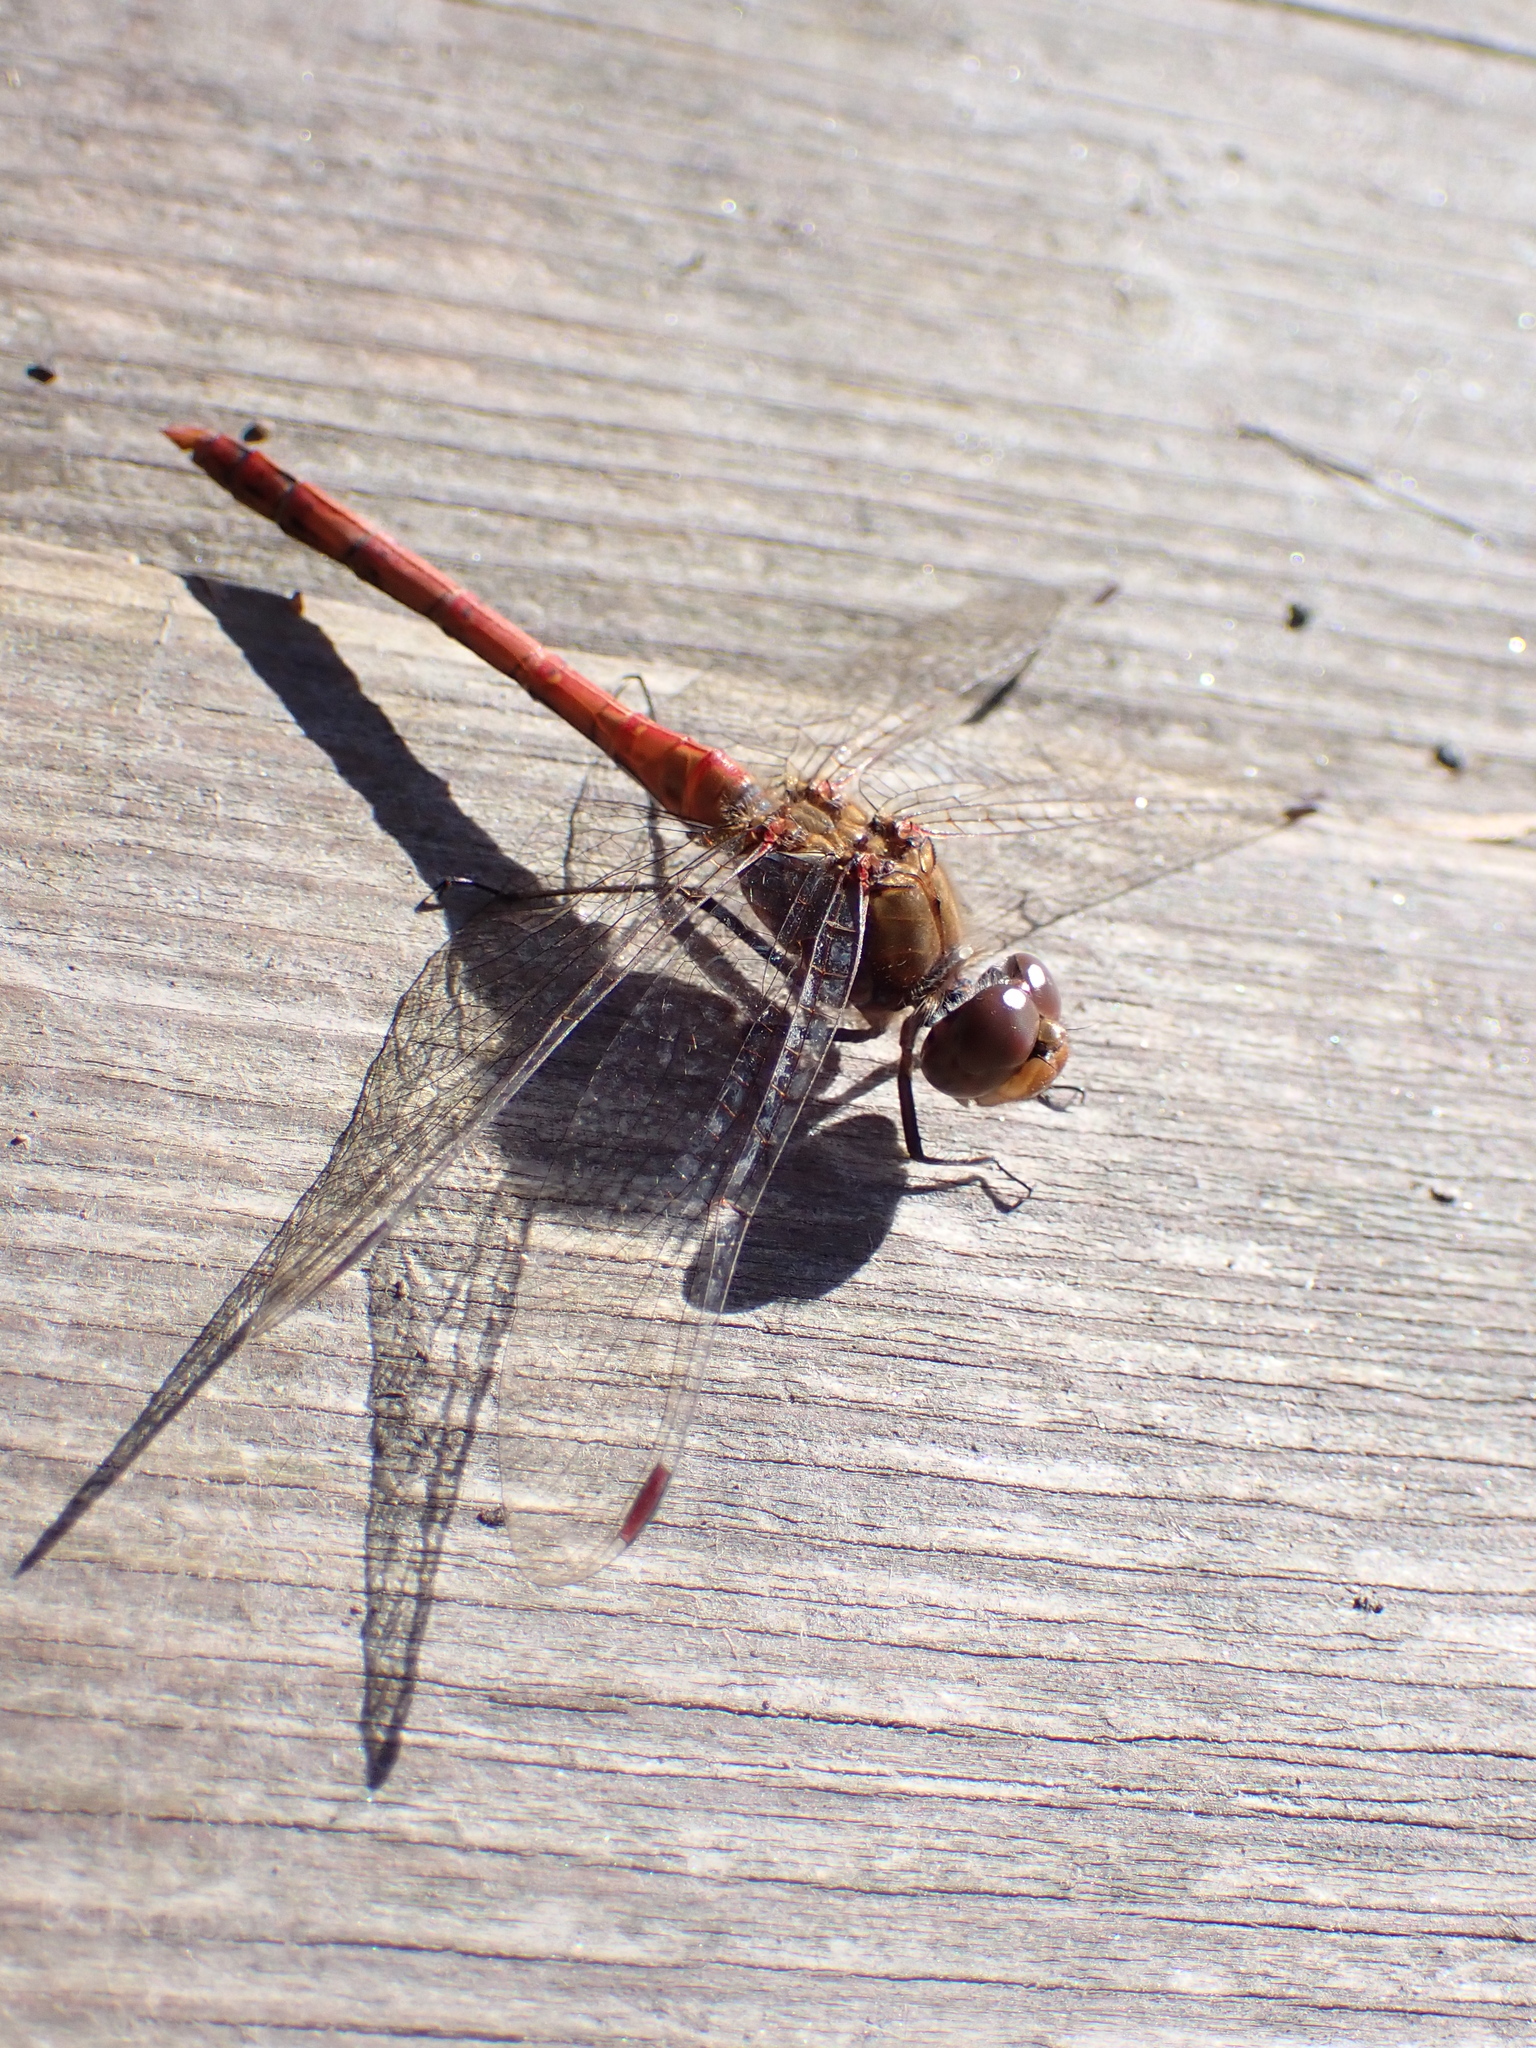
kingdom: Animalia
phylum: Arthropoda
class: Insecta
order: Odonata
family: Libellulidae
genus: Sympetrum
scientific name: Sympetrum striolatum
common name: Common darter
